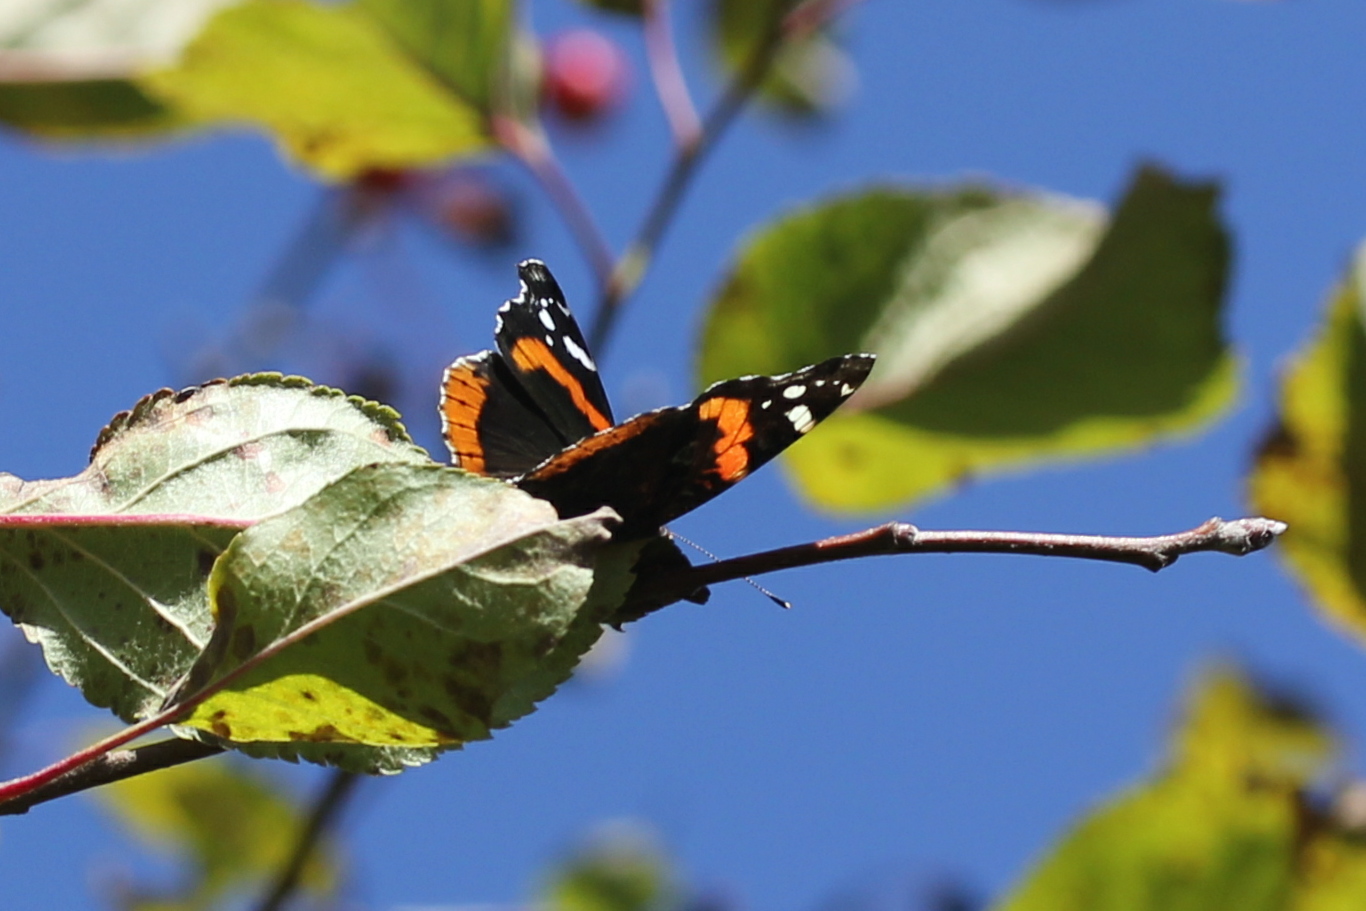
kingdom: Animalia
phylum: Arthropoda
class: Insecta
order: Lepidoptera
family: Nymphalidae
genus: Vanessa
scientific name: Vanessa atalanta
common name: Red admiral
